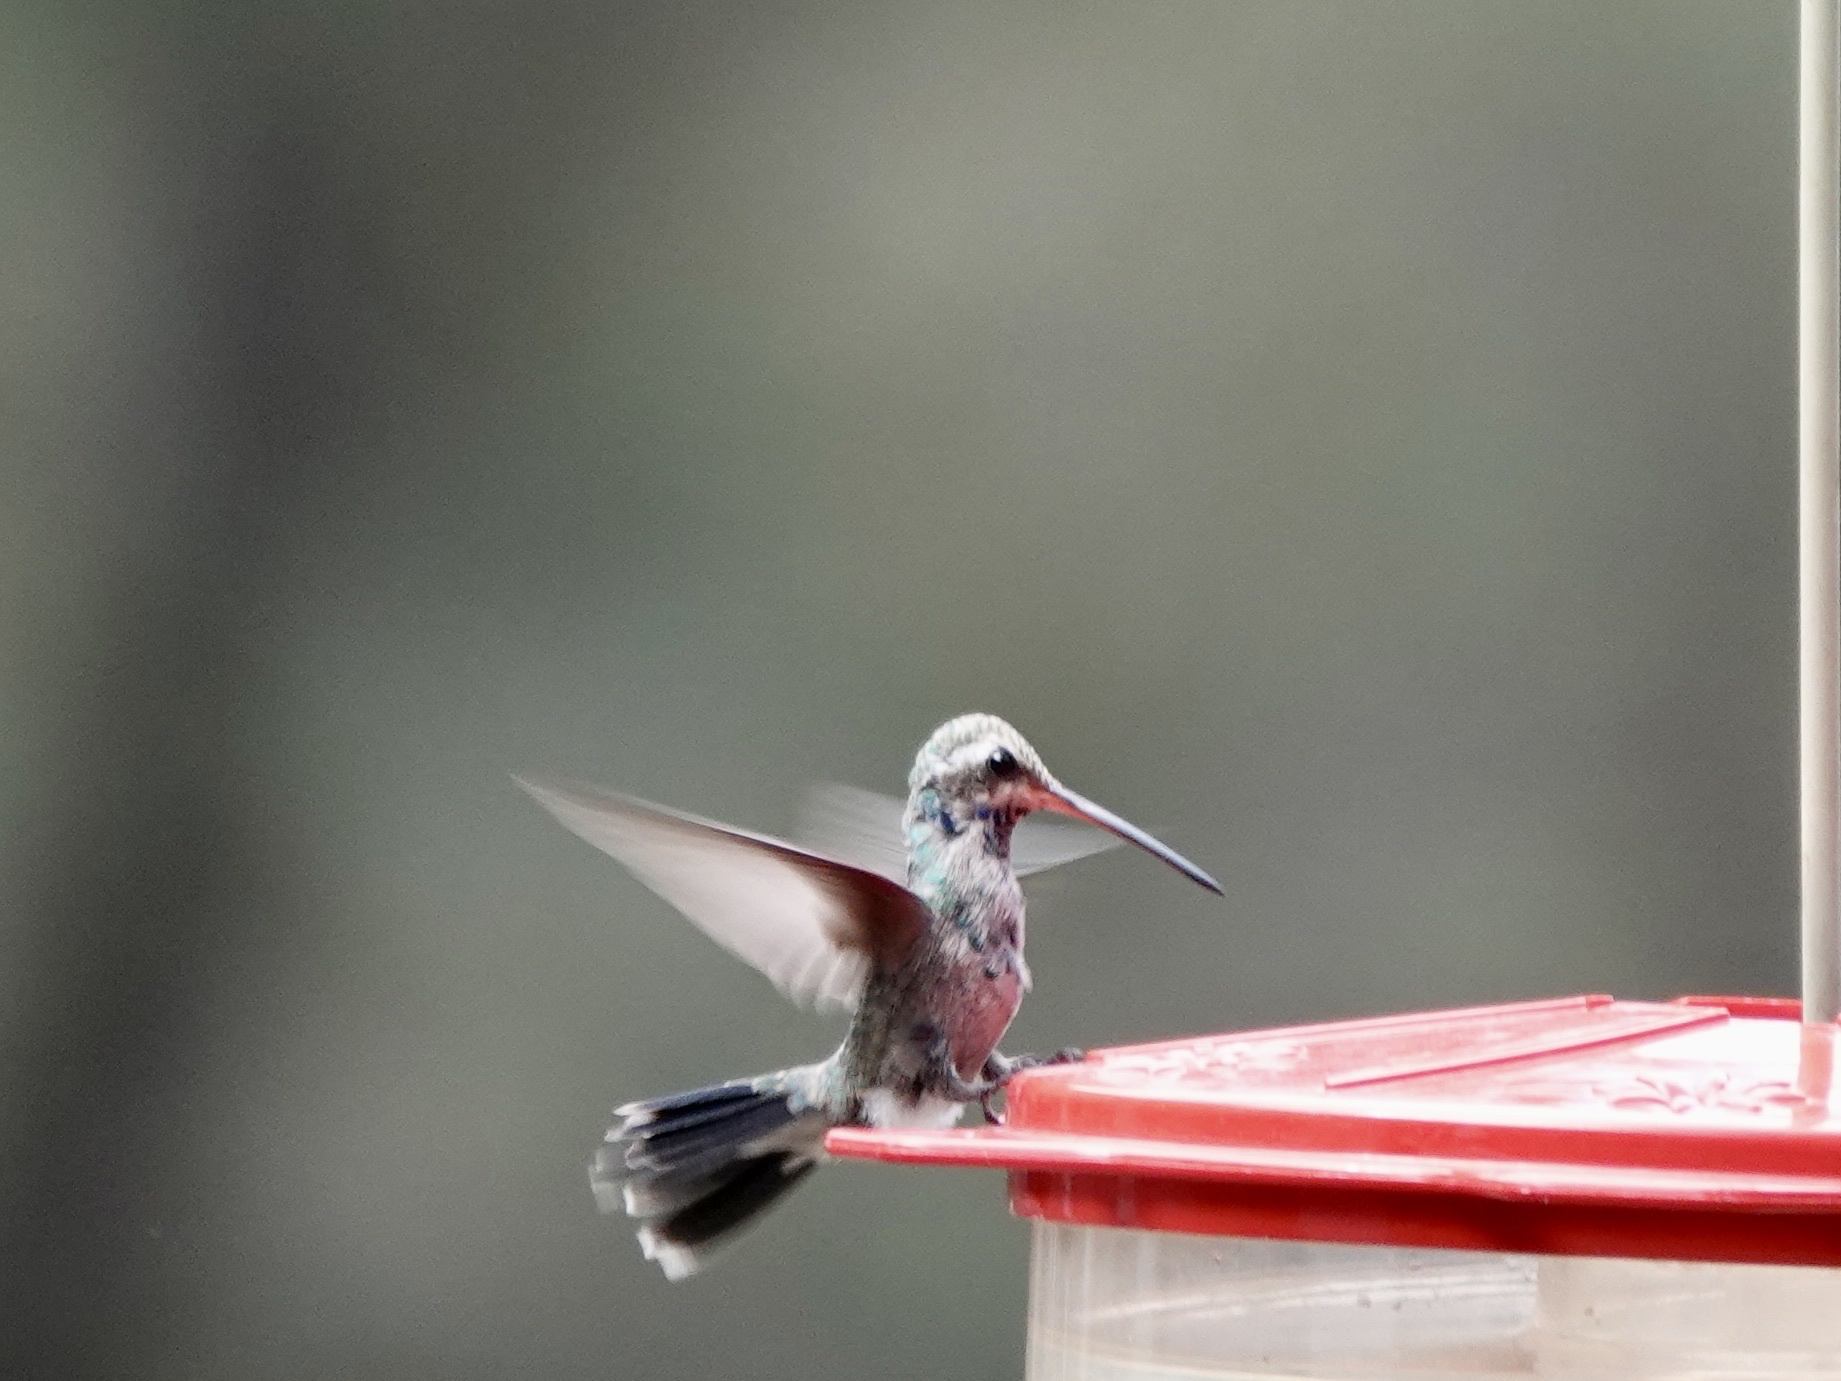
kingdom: Animalia
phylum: Chordata
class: Aves
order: Apodiformes
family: Trochilidae
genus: Cynanthus
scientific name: Cynanthus latirostris
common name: Broad-billed hummingbird
